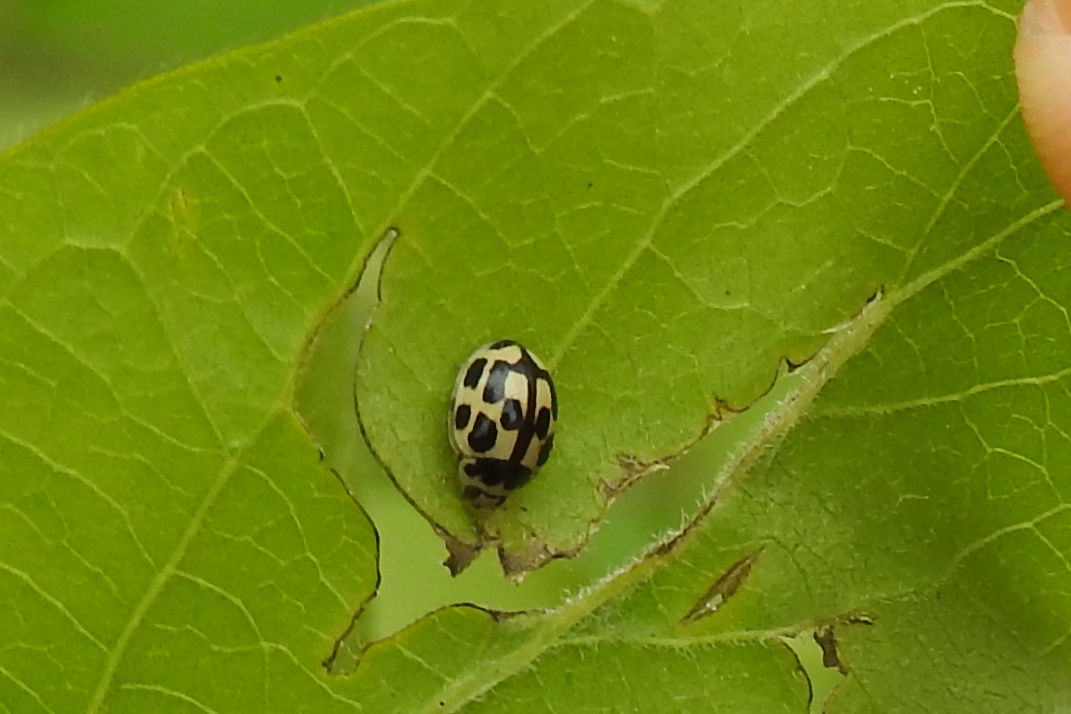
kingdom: Animalia
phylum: Arthropoda
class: Insecta
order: Coleoptera
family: Coccinellidae
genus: Propylaea
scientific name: Propylaea quatuordecimpunctata
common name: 14-spotted ladybird beetle
